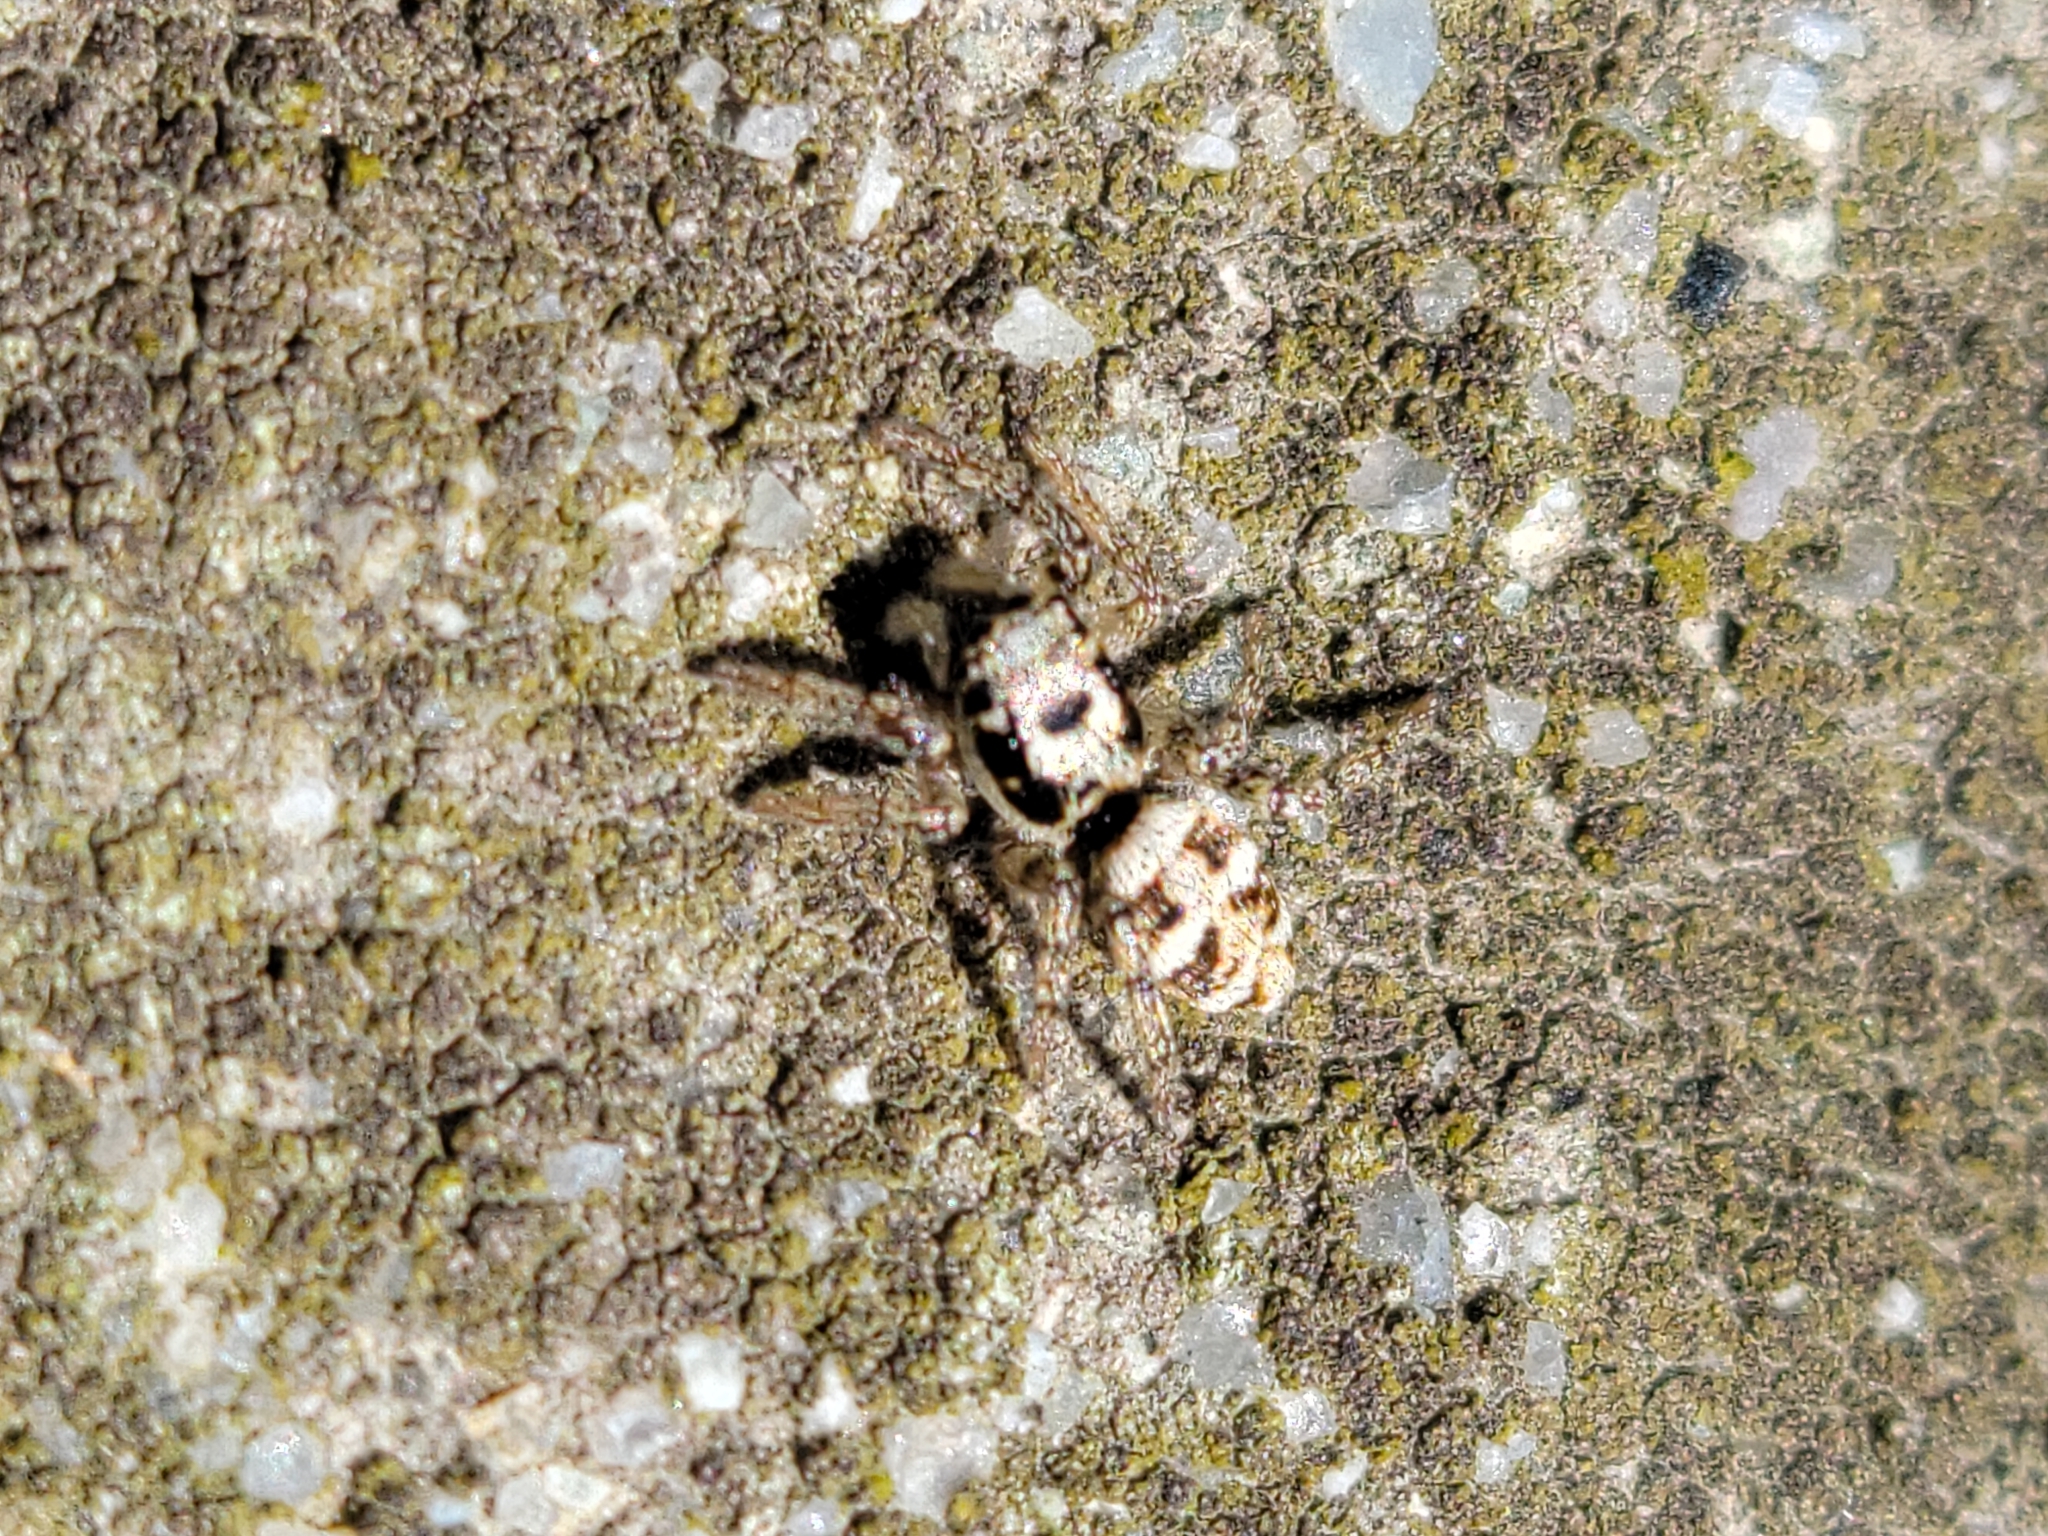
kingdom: Animalia
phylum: Arthropoda
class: Arachnida
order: Araneae
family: Salticidae
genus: Salticus
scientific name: Salticus scenicus
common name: Zebra jumper
